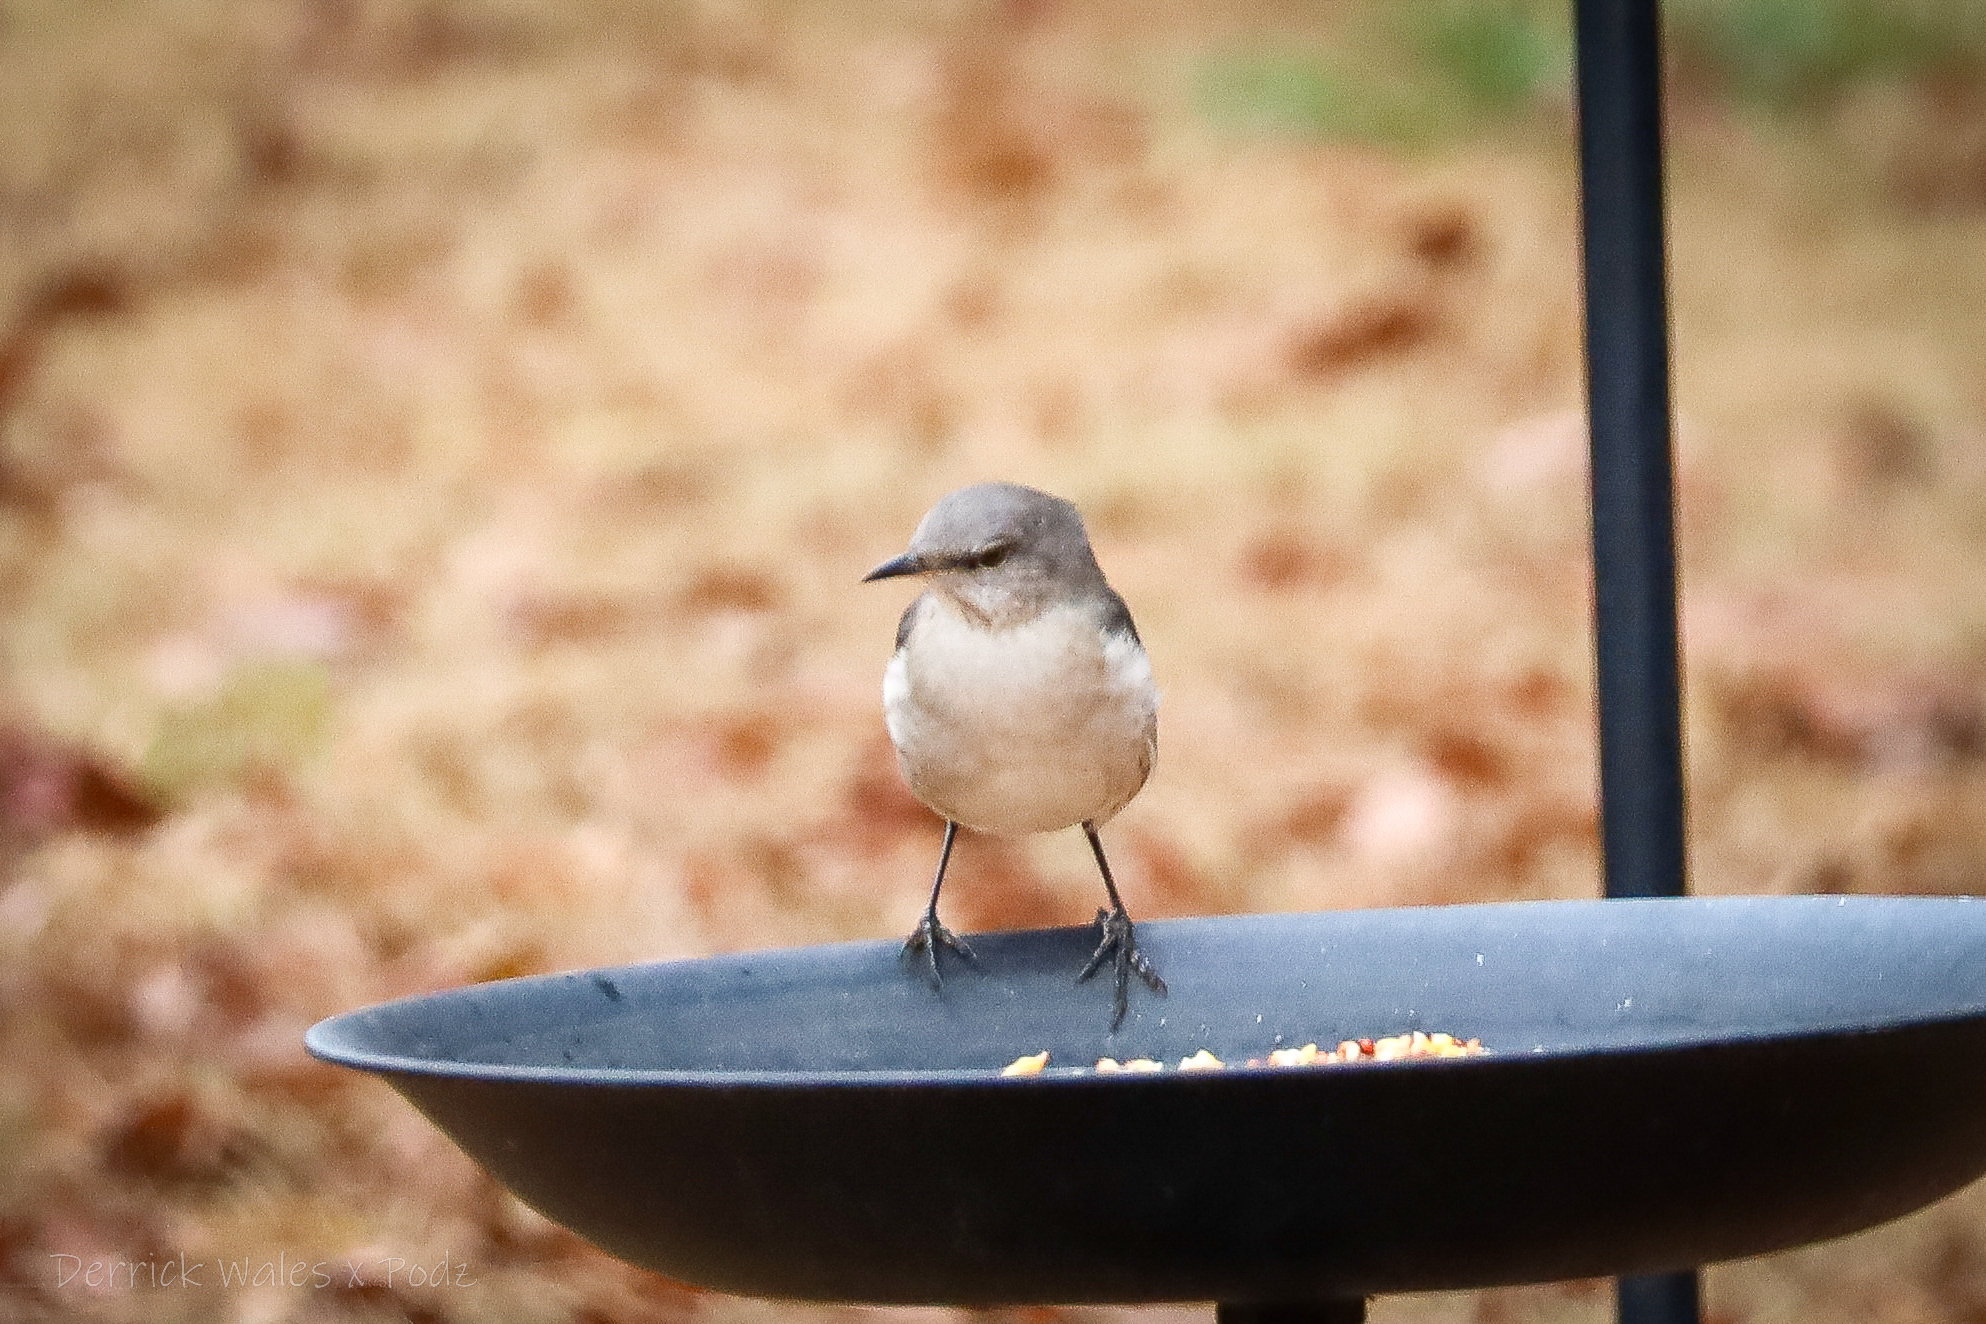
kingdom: Animalia
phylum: Chordata
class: Aves
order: Passeriformes
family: Mimidae
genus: Mimus
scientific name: Mimus polyglottos
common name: Northern mockingbird
